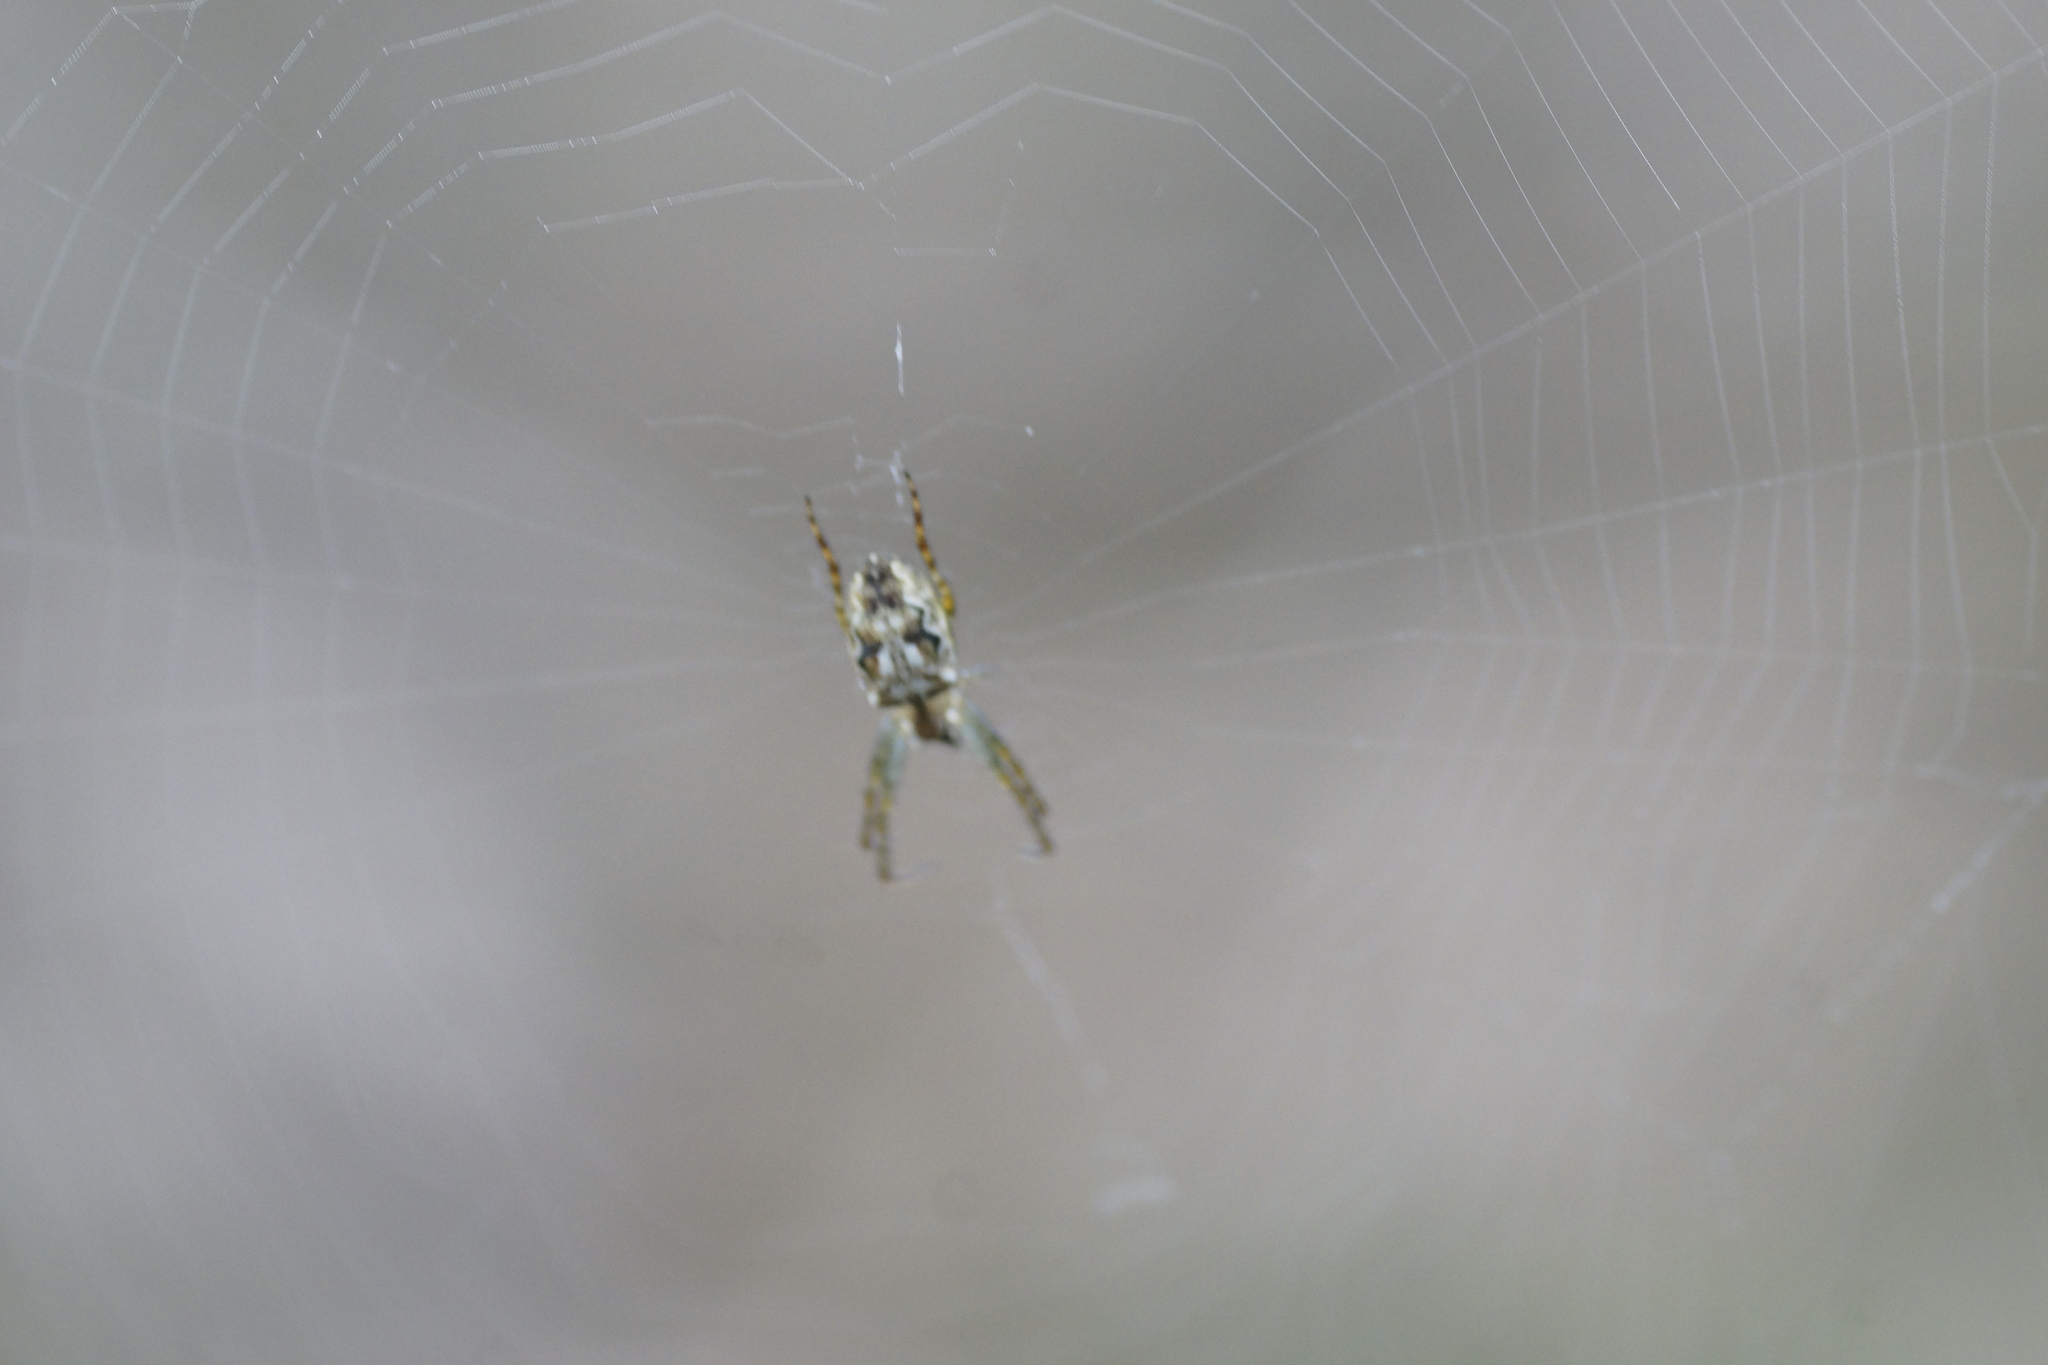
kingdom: Animalia
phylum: Arthropoda
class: Arachnida
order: Araneae
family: Araneidae
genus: Plebs
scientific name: Plebs eburnus
